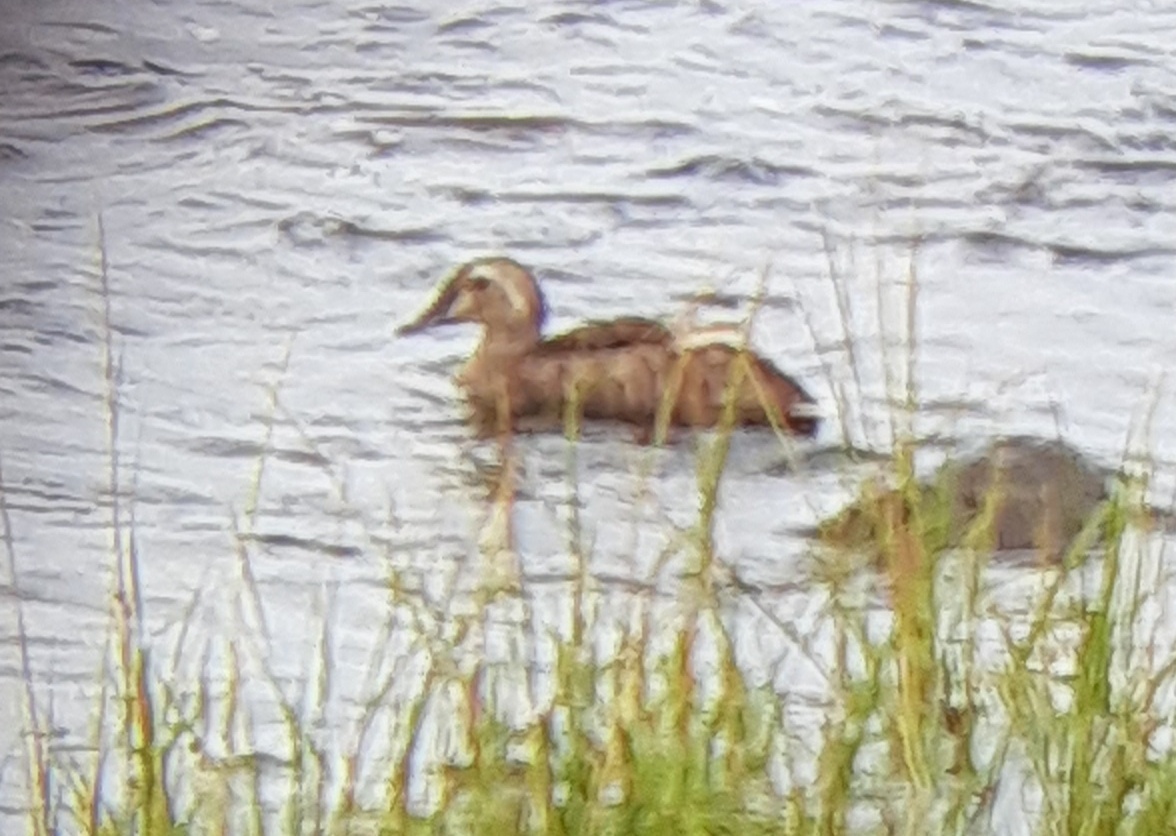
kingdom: Animalia
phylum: Chordata
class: Aves
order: Anseriformes
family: Anatidae
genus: Somateria
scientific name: Somateria spectabilis
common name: King eider
